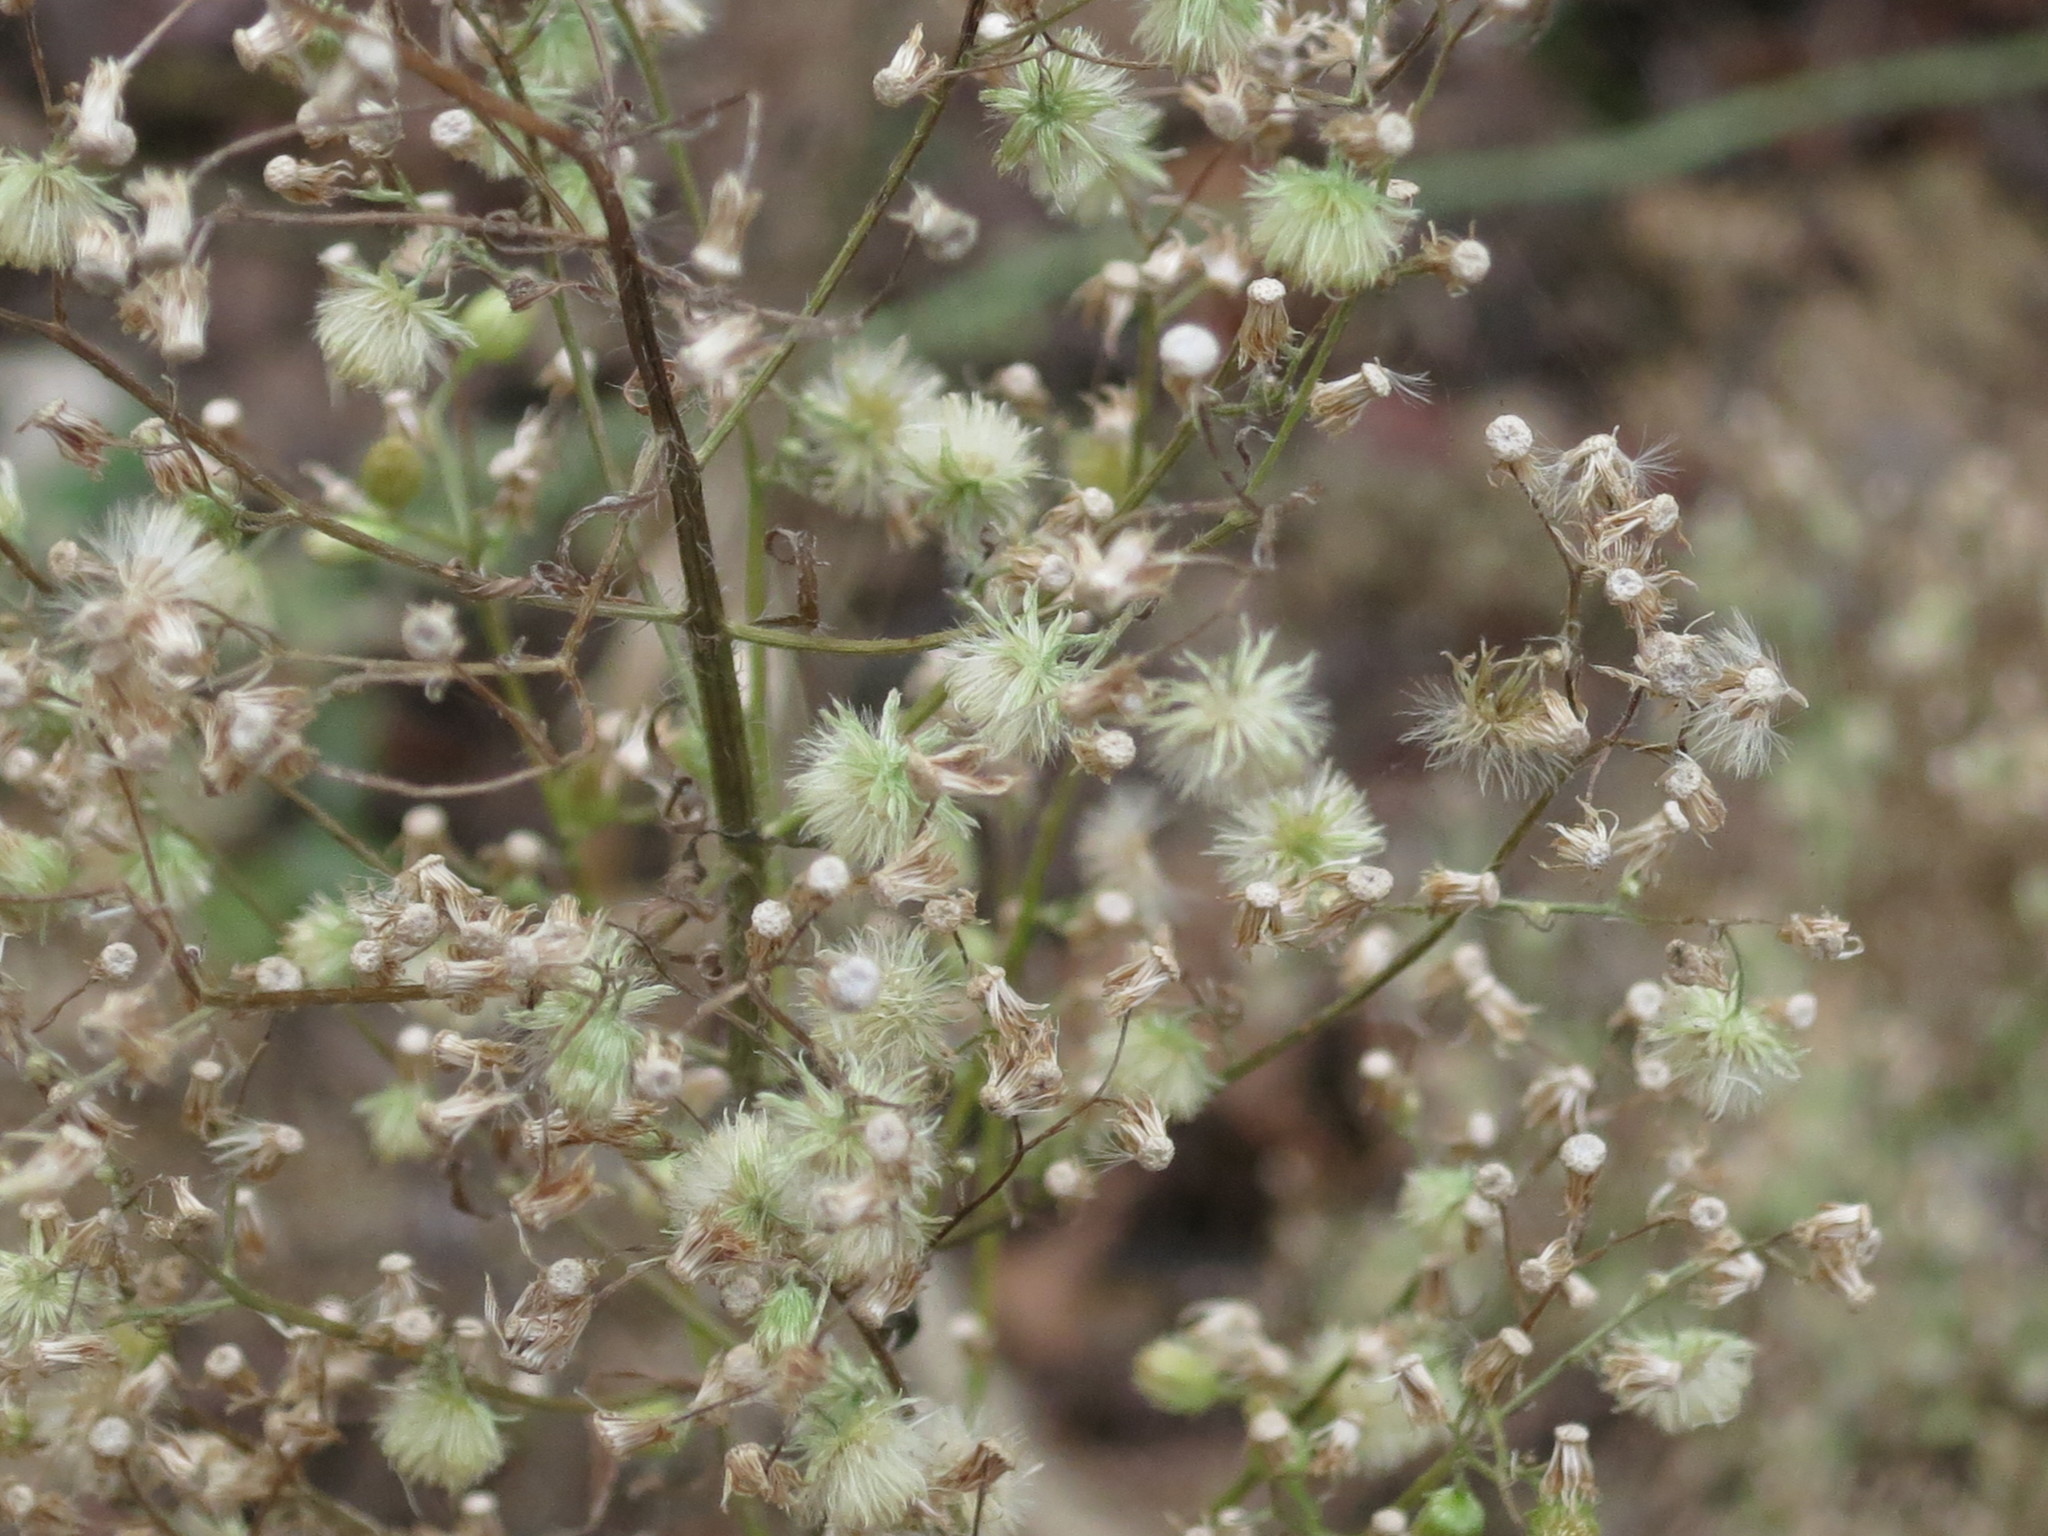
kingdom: Plantae
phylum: Tracheophyta
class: Magnoliopsida
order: Asterales
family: Asteraceae
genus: Erigeron
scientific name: Erigeron canadensis
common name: Canadian fleabane
